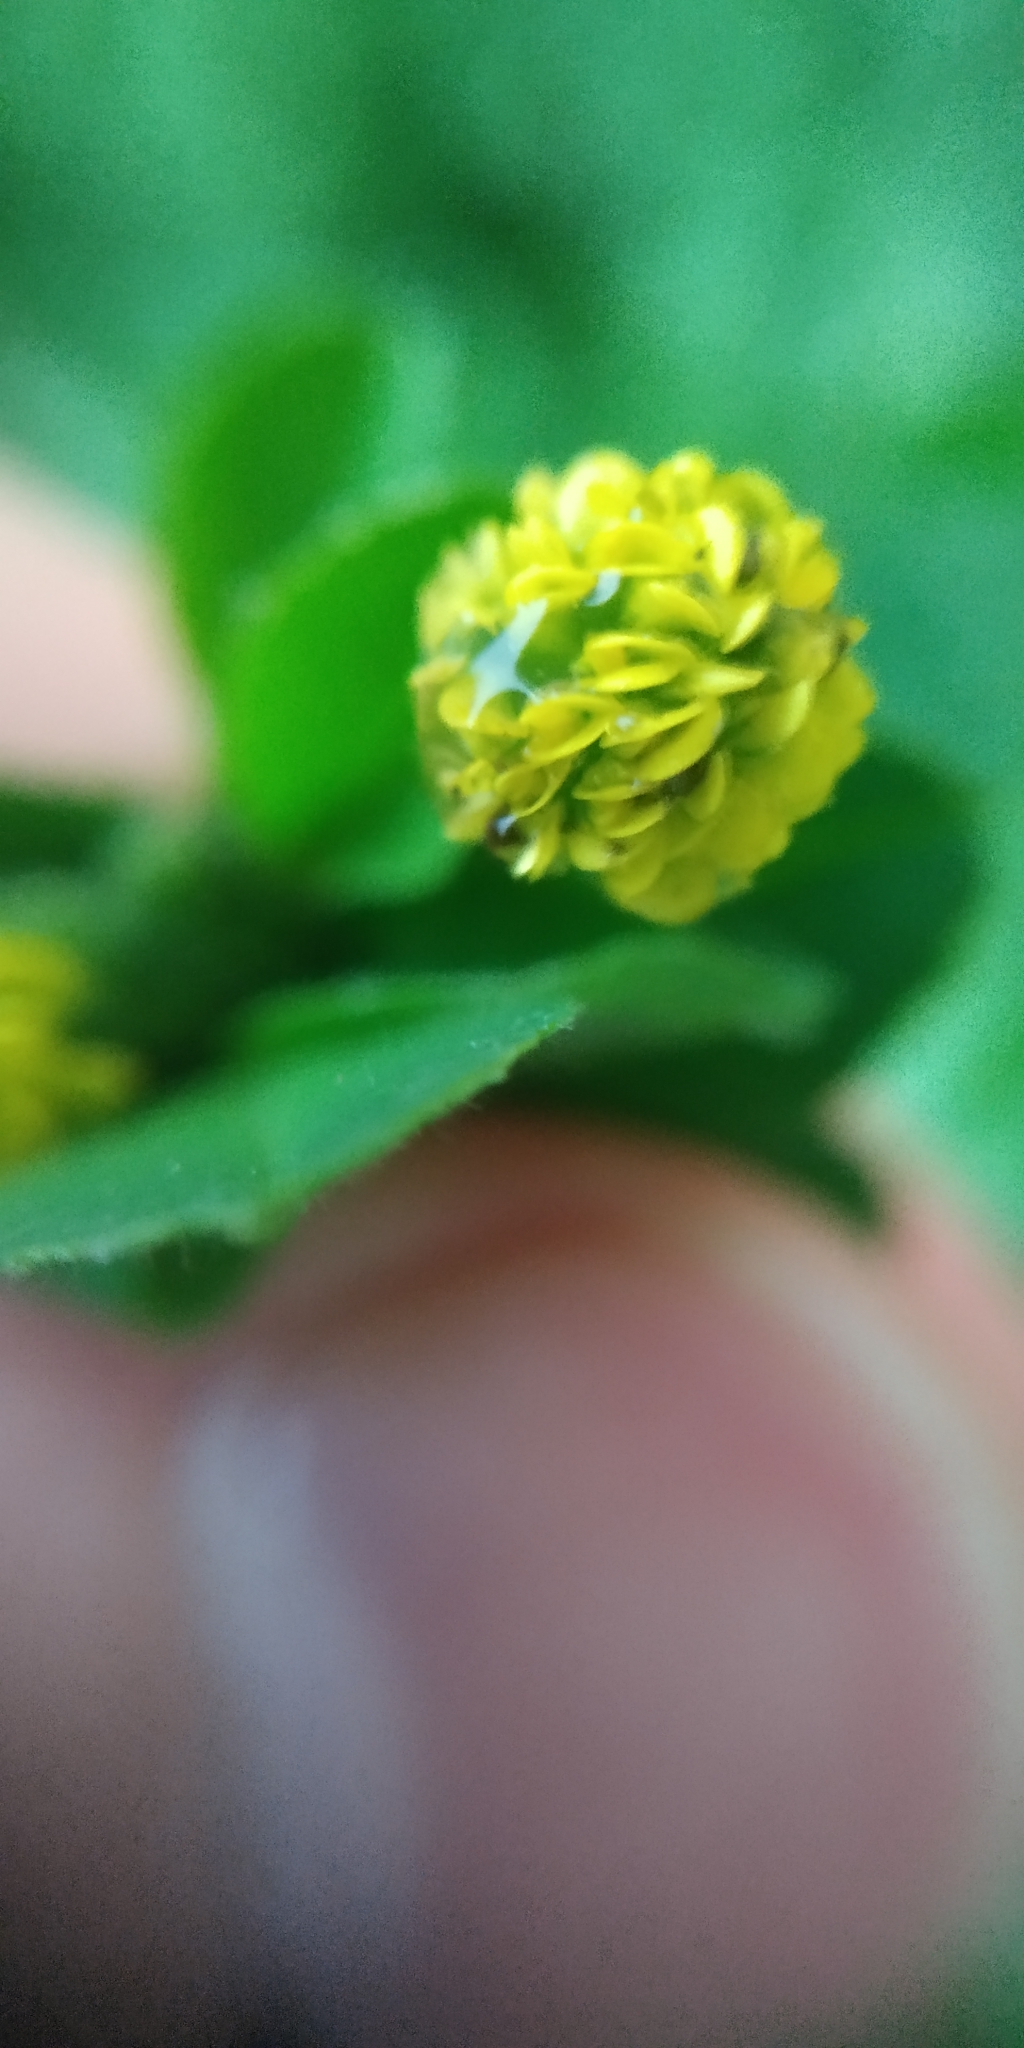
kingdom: Plantae
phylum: Tracheophyta
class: Magnoliopsida
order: Fabales
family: Fabaceae
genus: Medicago
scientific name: Medicago lupulina
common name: Black medick
